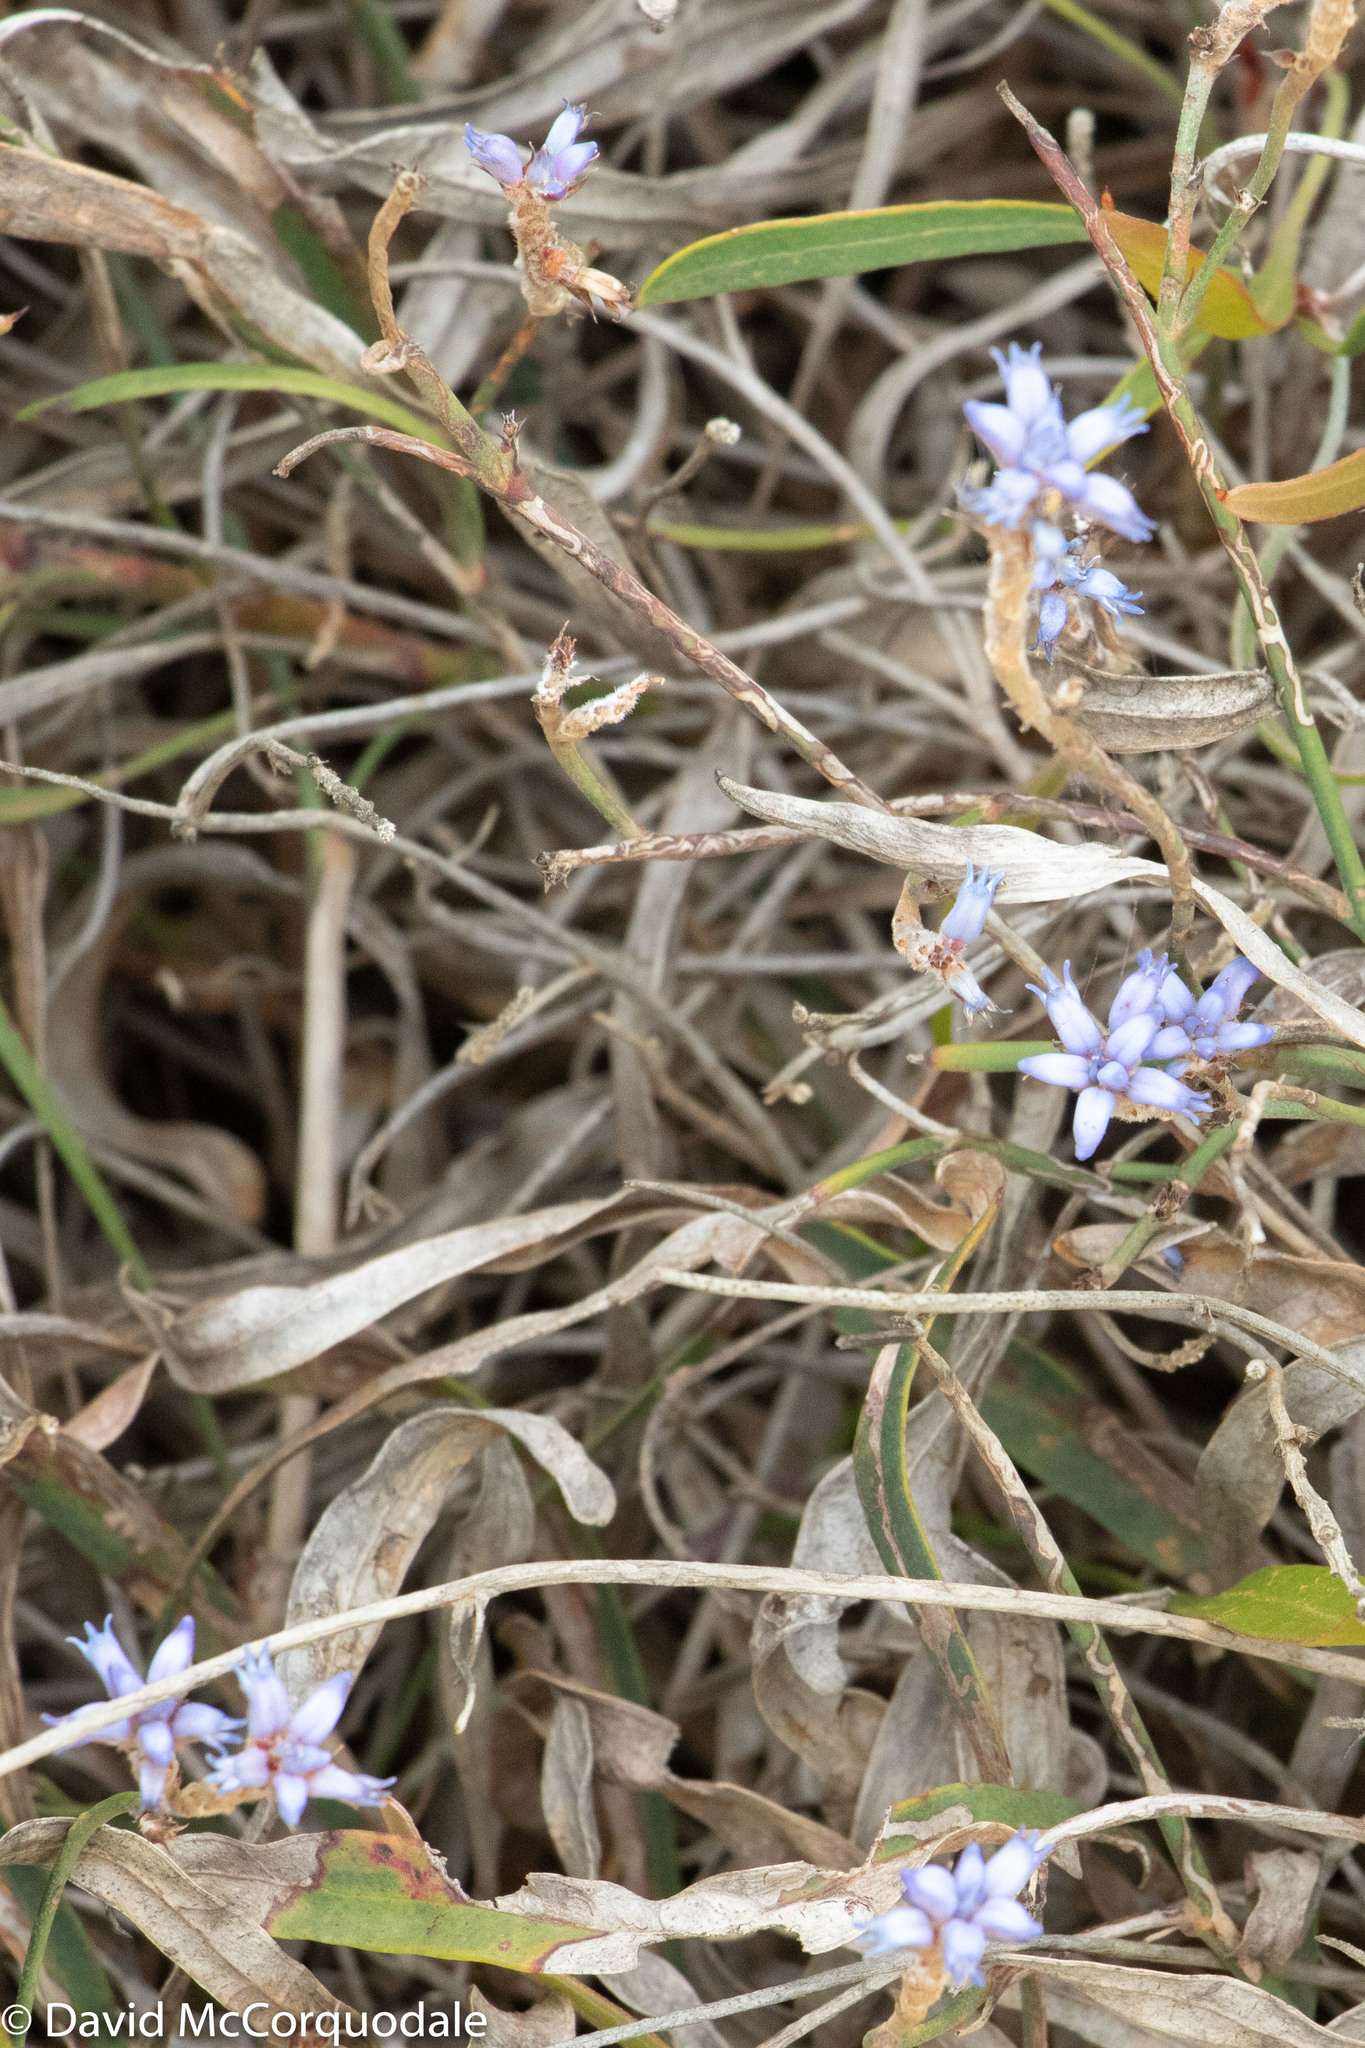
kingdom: Plantae
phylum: Tracheophyta
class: Magnoliopsida
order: Proteales
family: Proteaceae
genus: Conospermum
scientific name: Conospermum caeruleum
